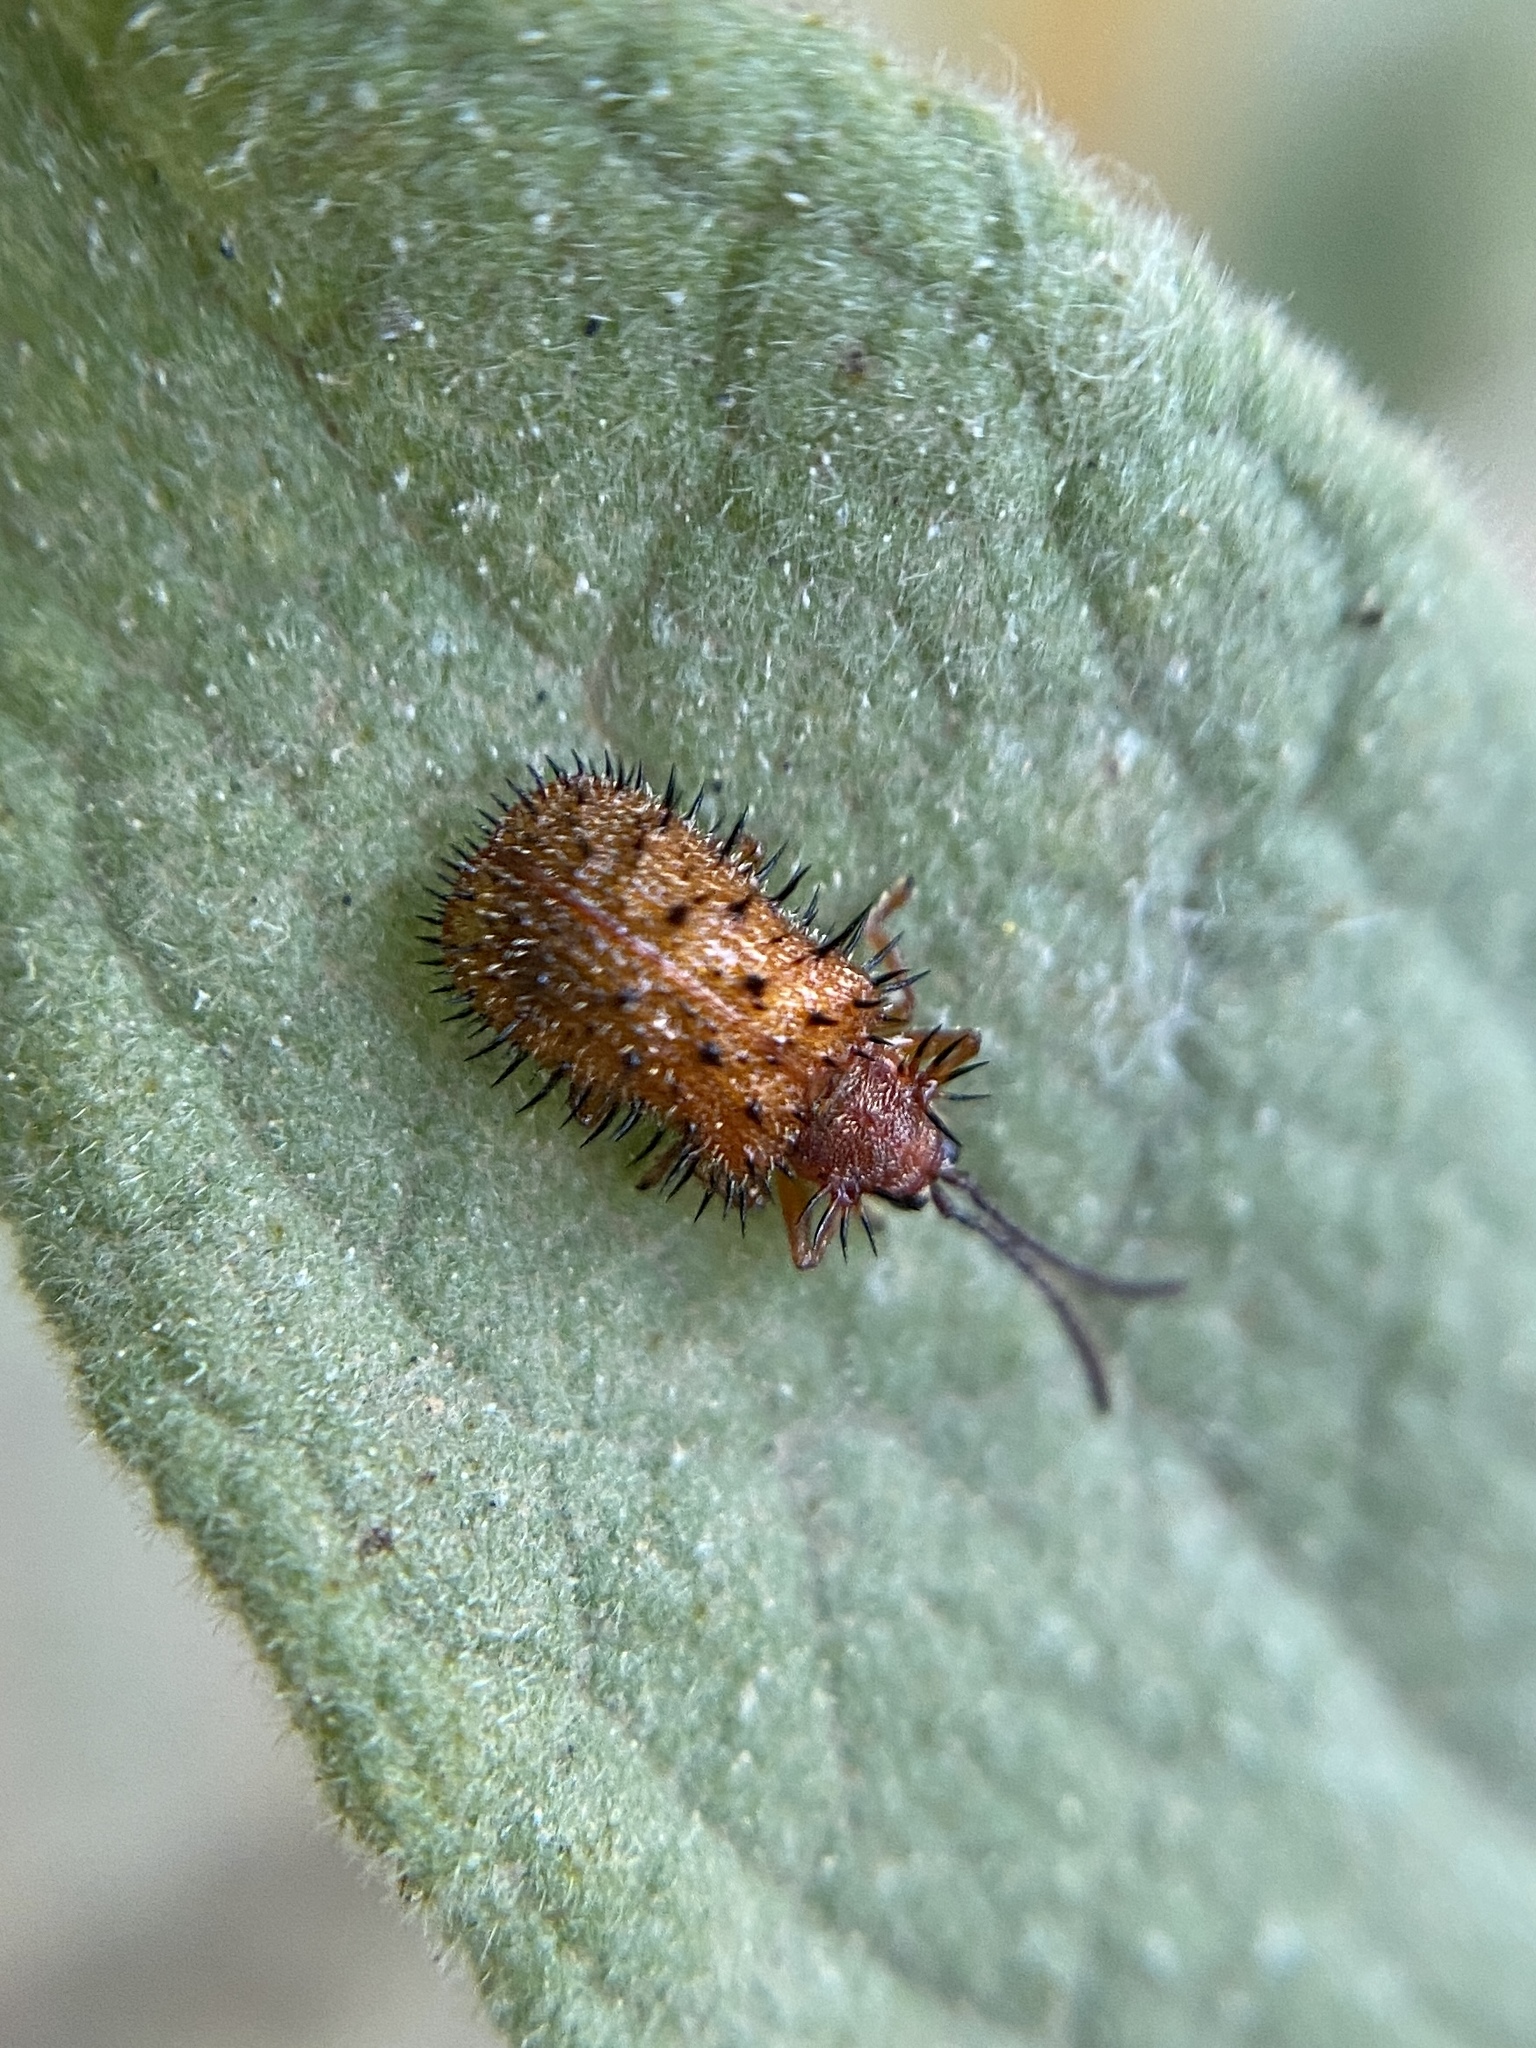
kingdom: Animalia
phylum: Arthropoda
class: Insecta
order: Coleoptera
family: Chrysomelidae
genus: Dicladispa
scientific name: Dicladispa testacea
